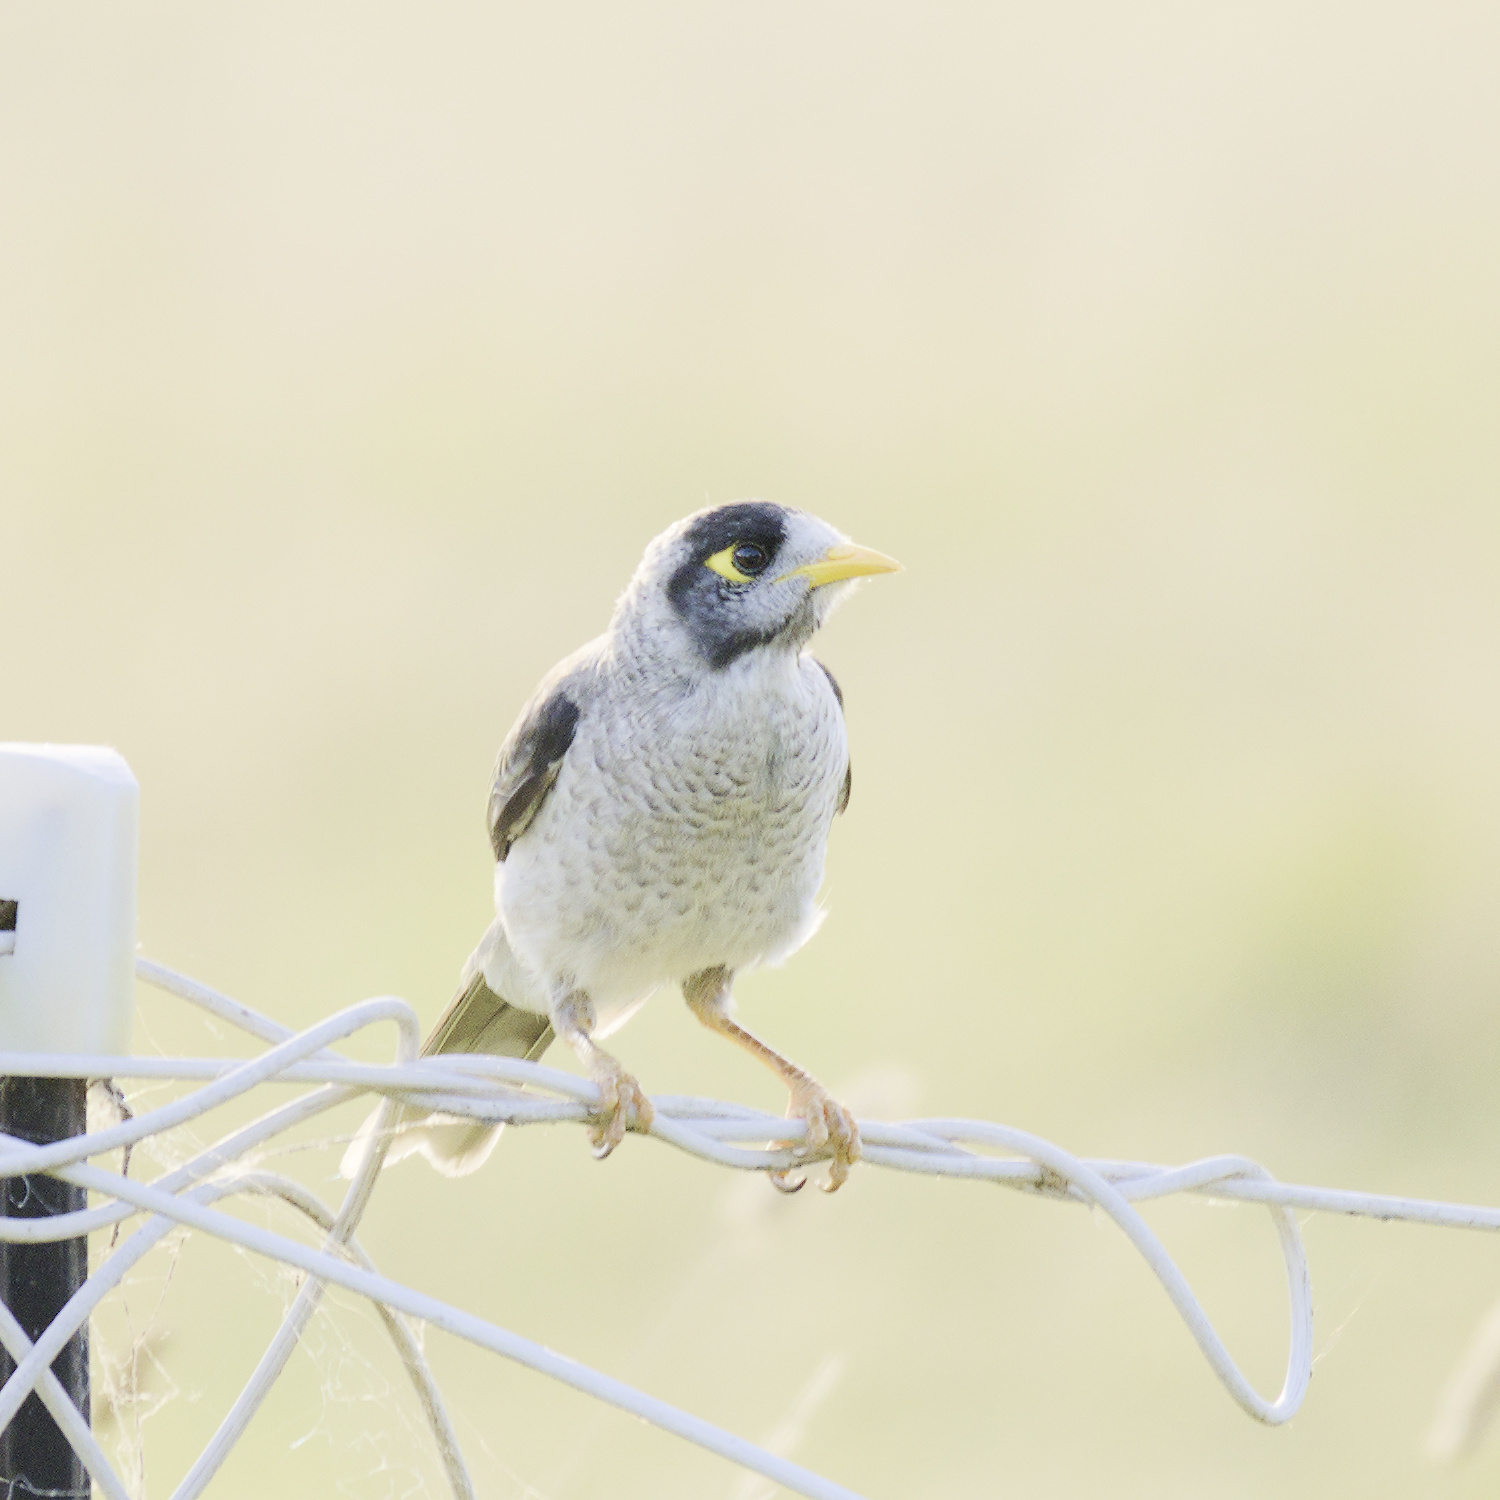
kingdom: Animalia
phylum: Chordata
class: Aves
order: Passeriformes
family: Meliphagidae
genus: Manorina
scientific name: Manorina melanocephala
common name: Noisy miner
